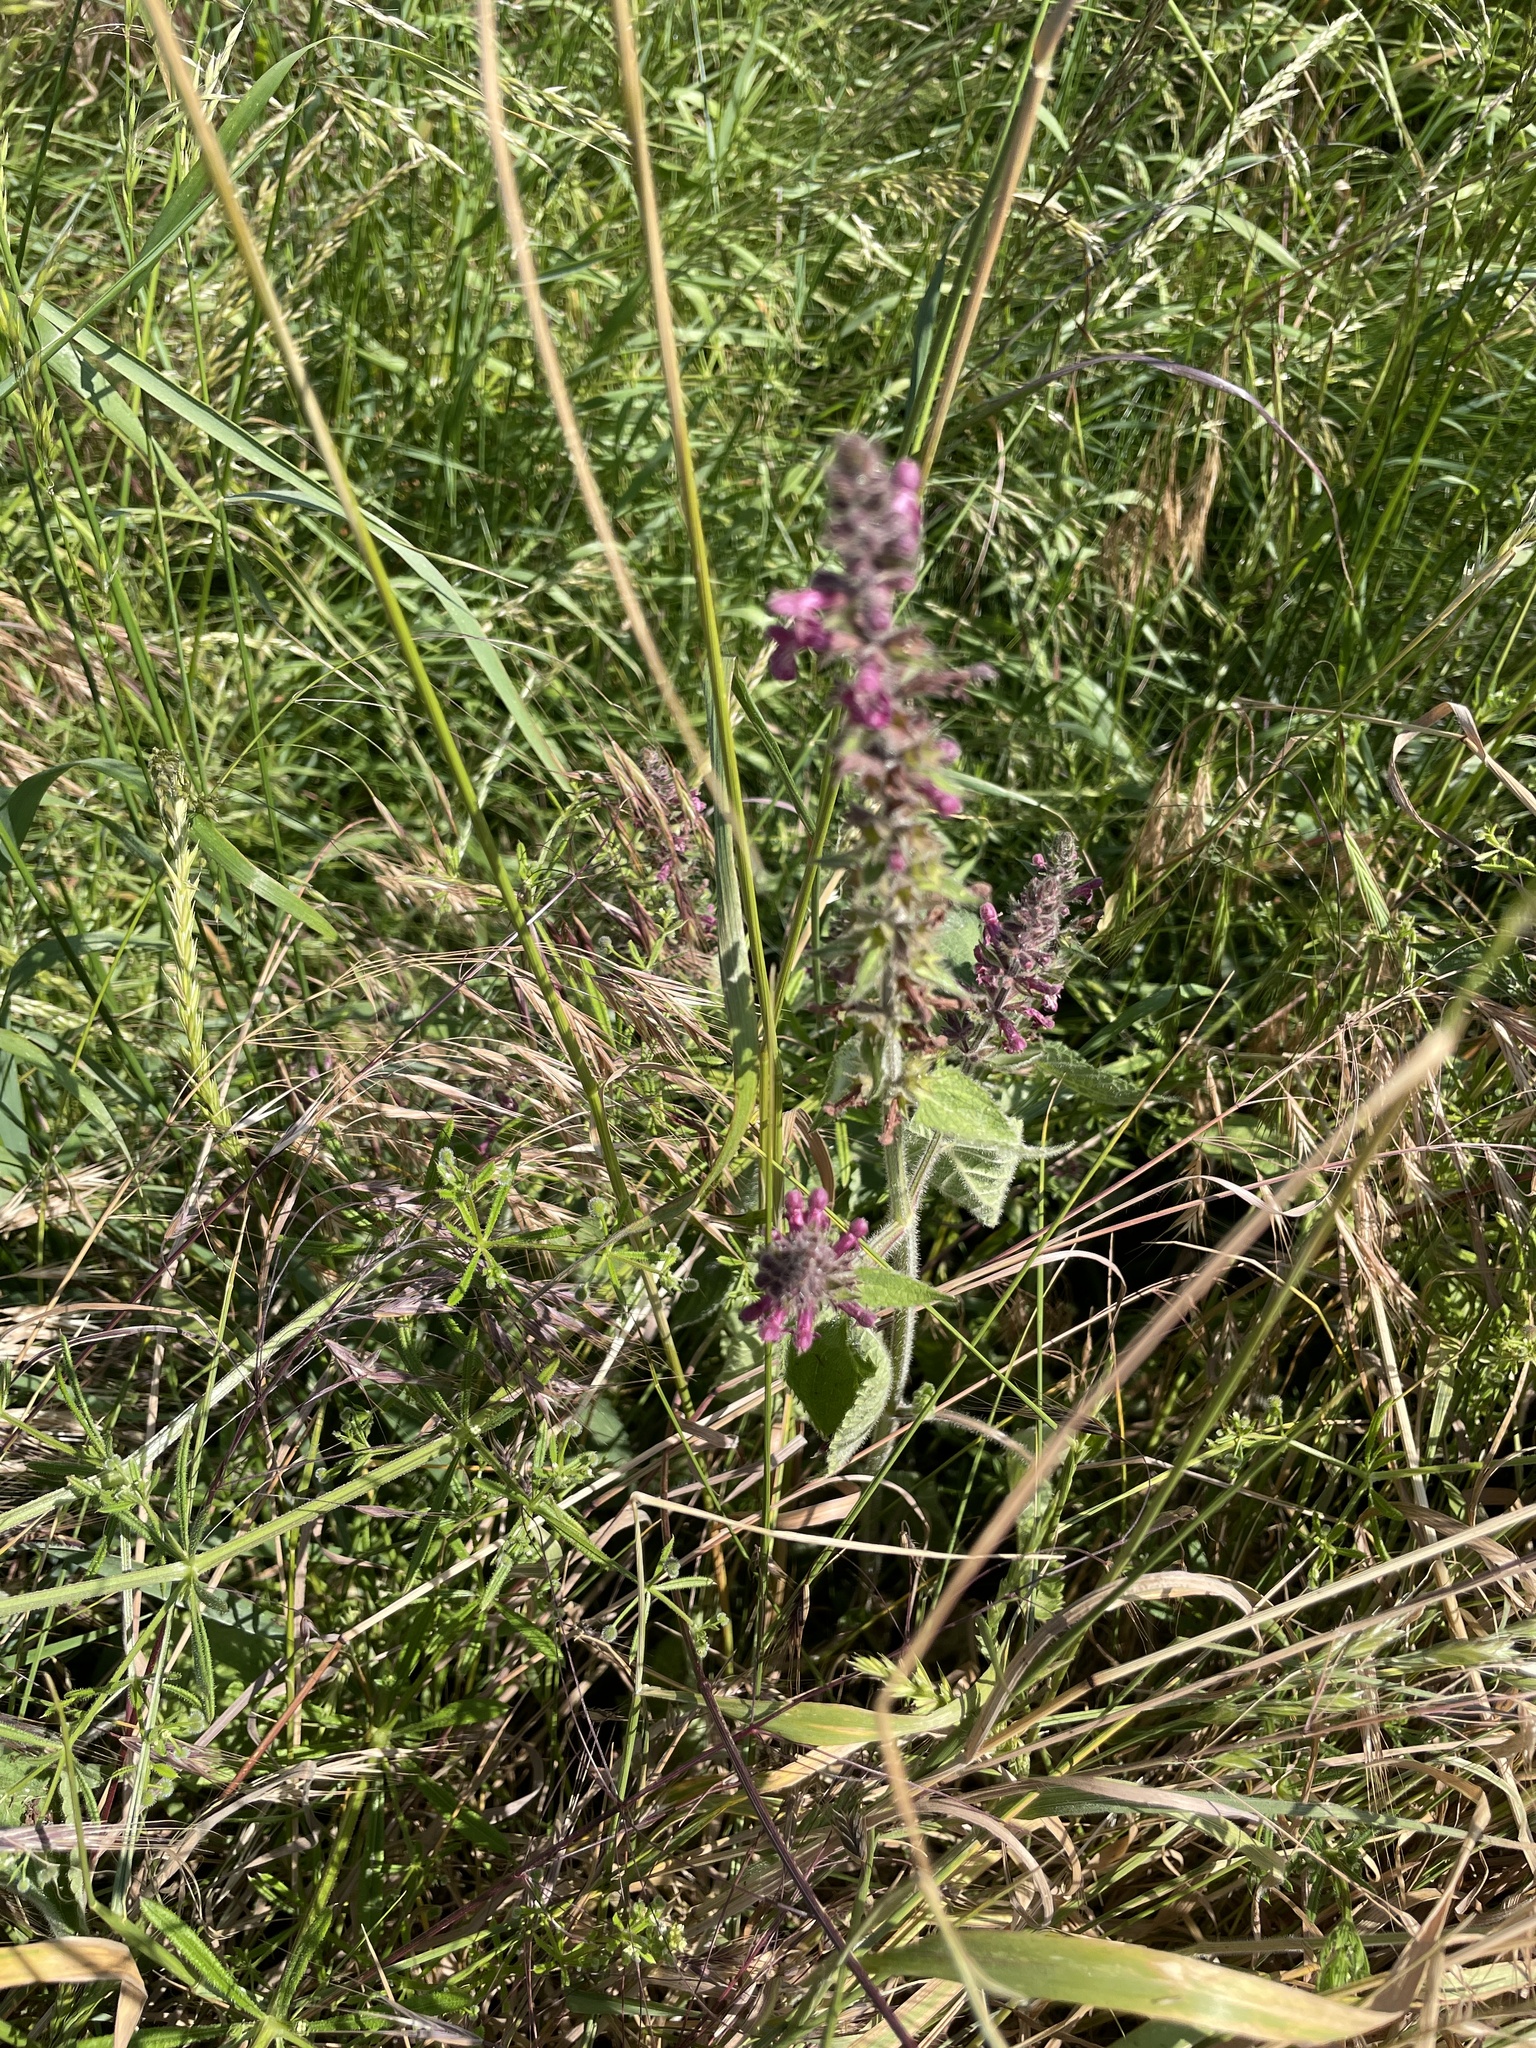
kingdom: Plantae
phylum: Tracheophyta
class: Magnoliopsida
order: Lamiales
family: Lamiaceae
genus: Stachys
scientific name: Stachys sylvatica
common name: Hedge woundwort
